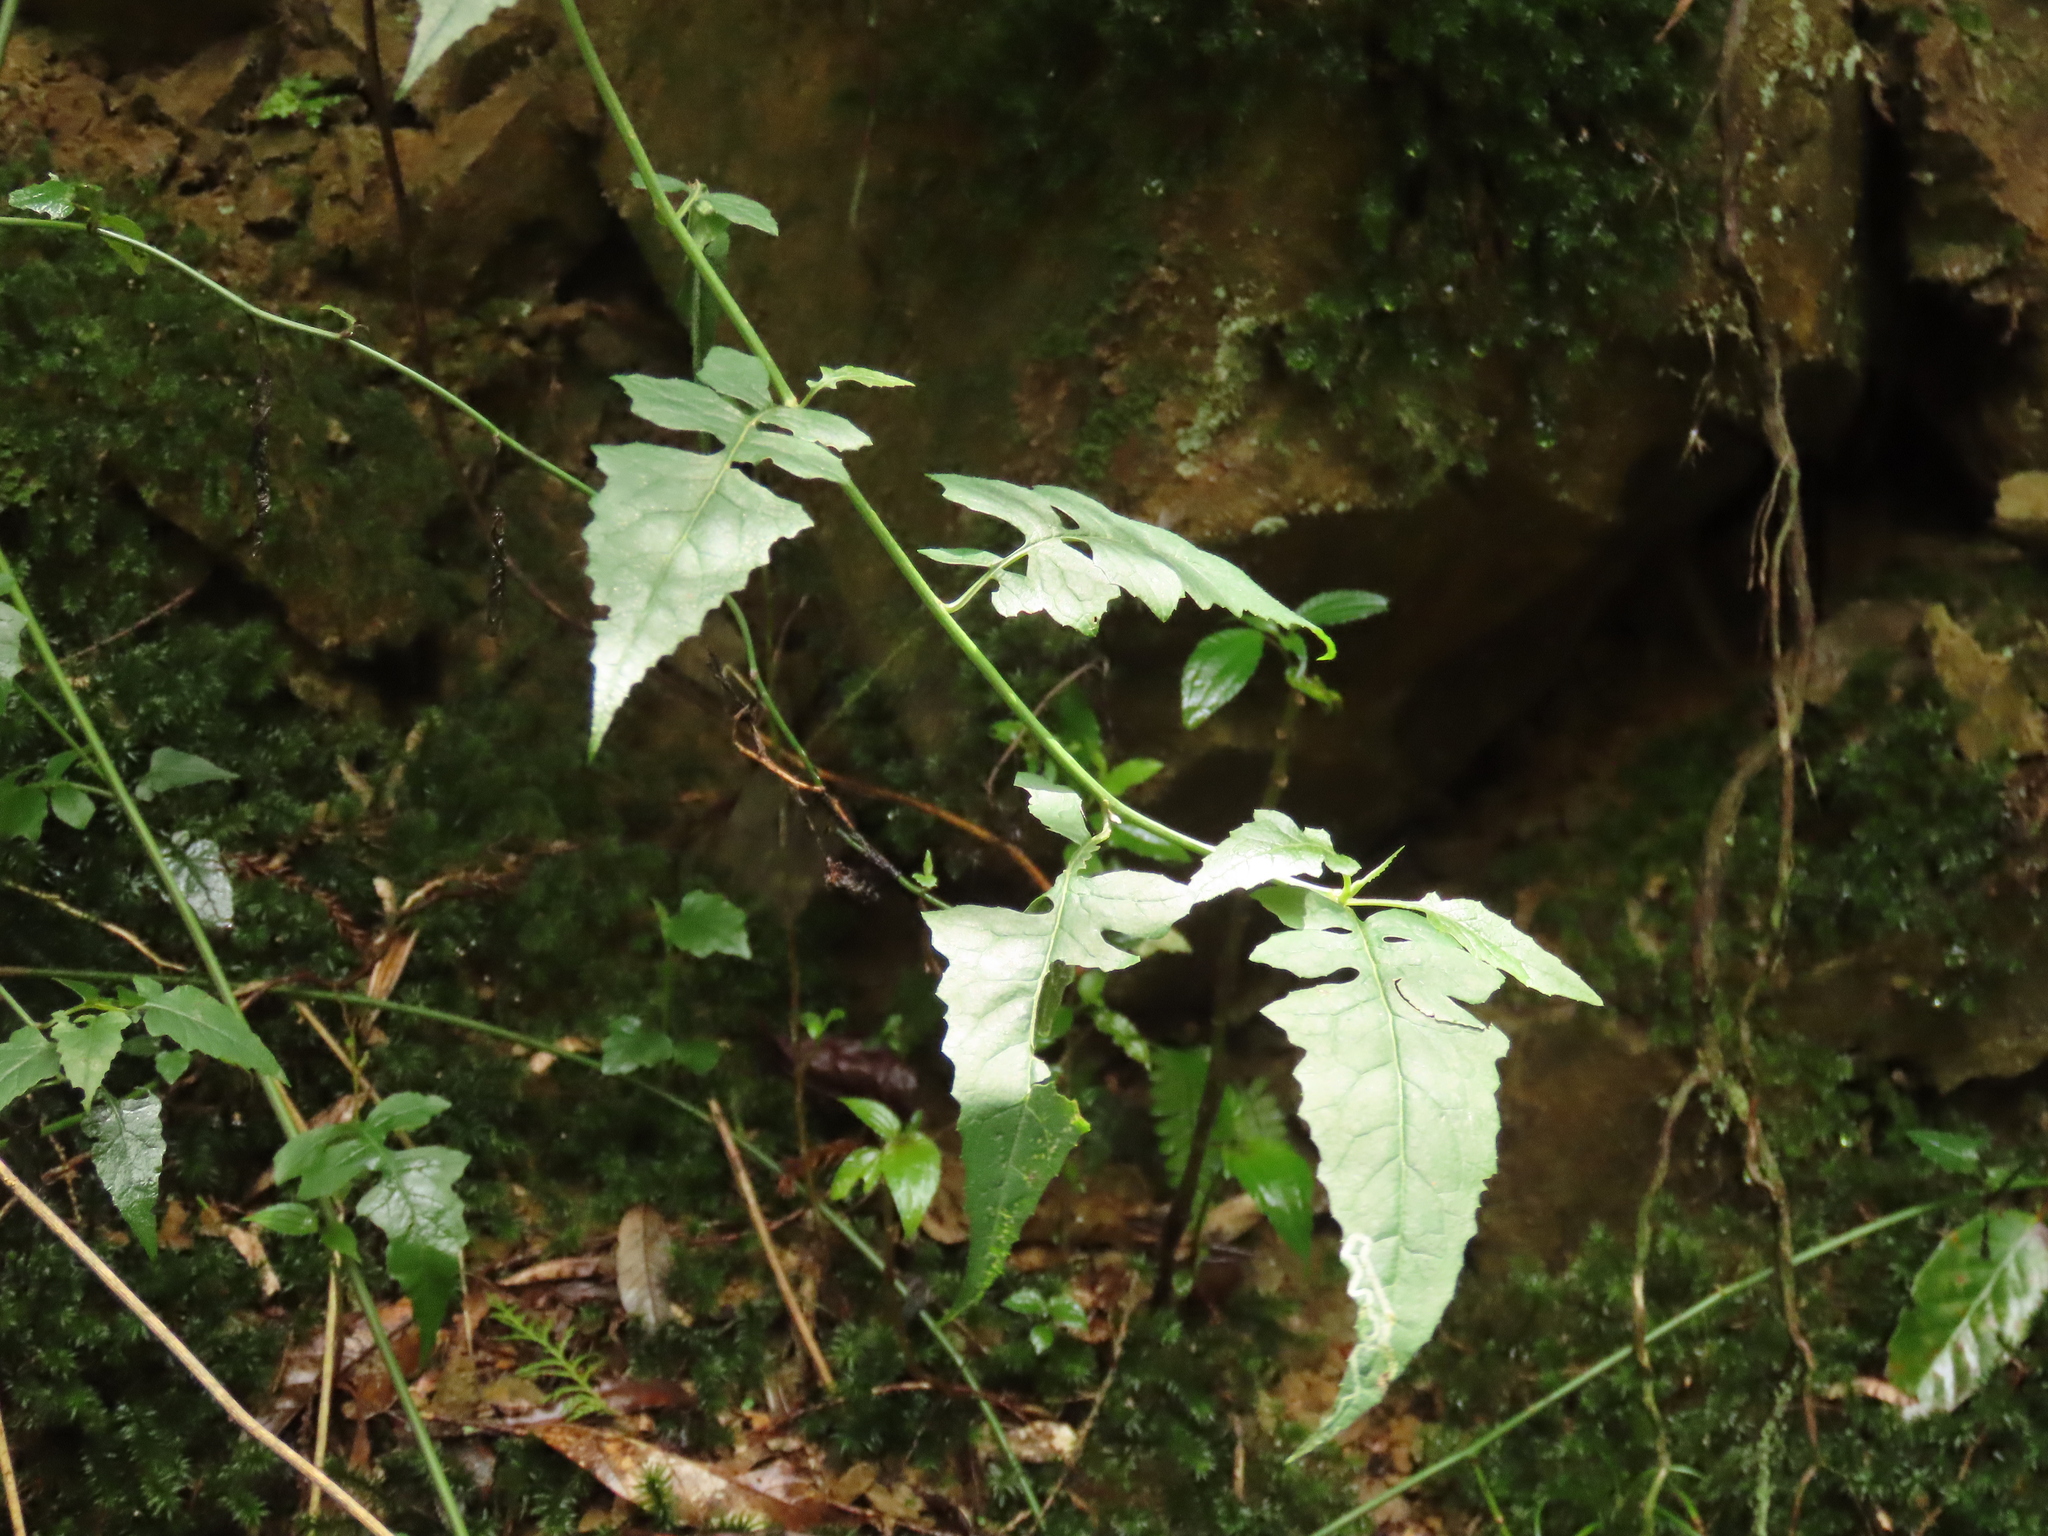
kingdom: Plantae
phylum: Tracheophyta
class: Magnoliopsida
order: Asterales
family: Asteraceae
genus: Senecio
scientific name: Senecio scandens
